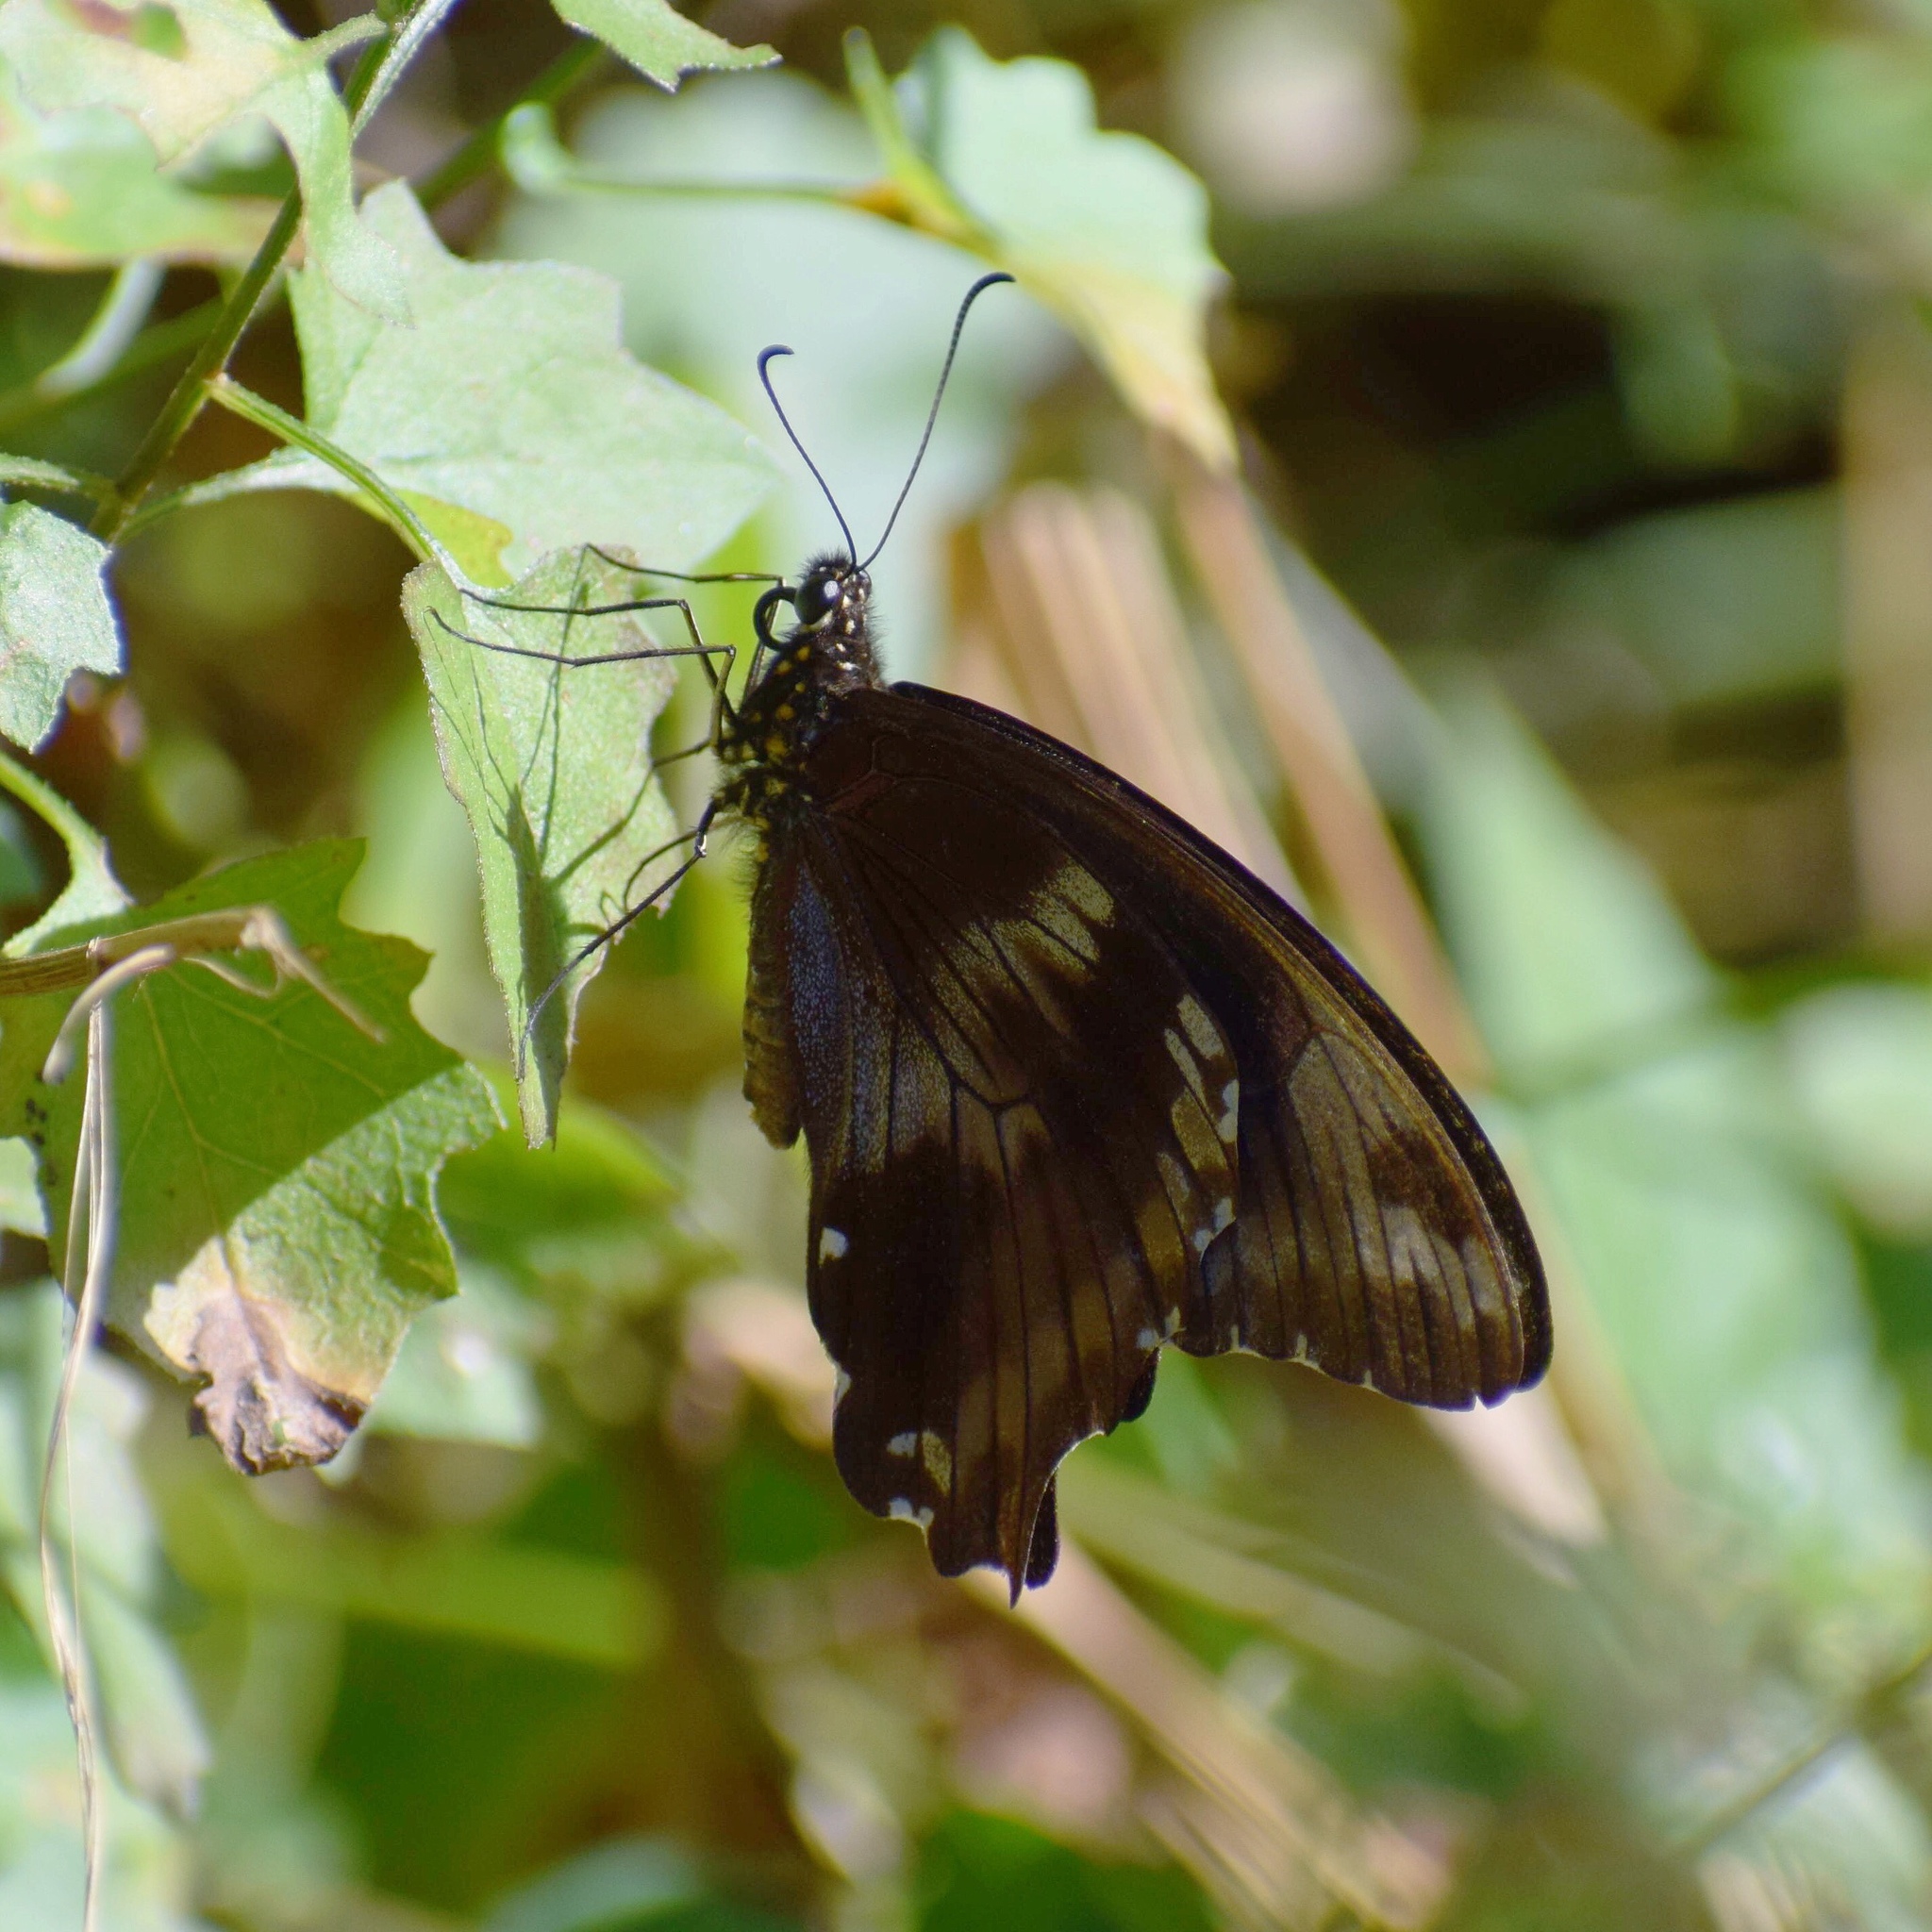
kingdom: Animalia
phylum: Arthropoda
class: Insecta
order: Lepidoptera
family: Papilionidae
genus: Papilio
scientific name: Papilio nireus
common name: Greenbanded swallowtail
